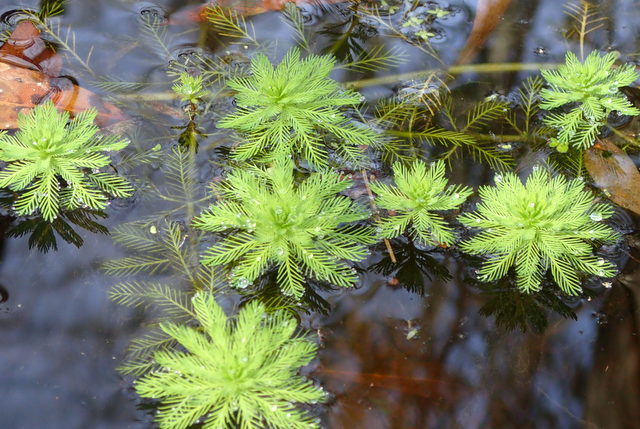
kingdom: Plantae
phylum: Tracheophyta
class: Magnoliopsida
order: Saxifragales
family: Haloragaceae
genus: Myriophyllum
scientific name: Myriophyllum aquaticum
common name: Parrot's feather
